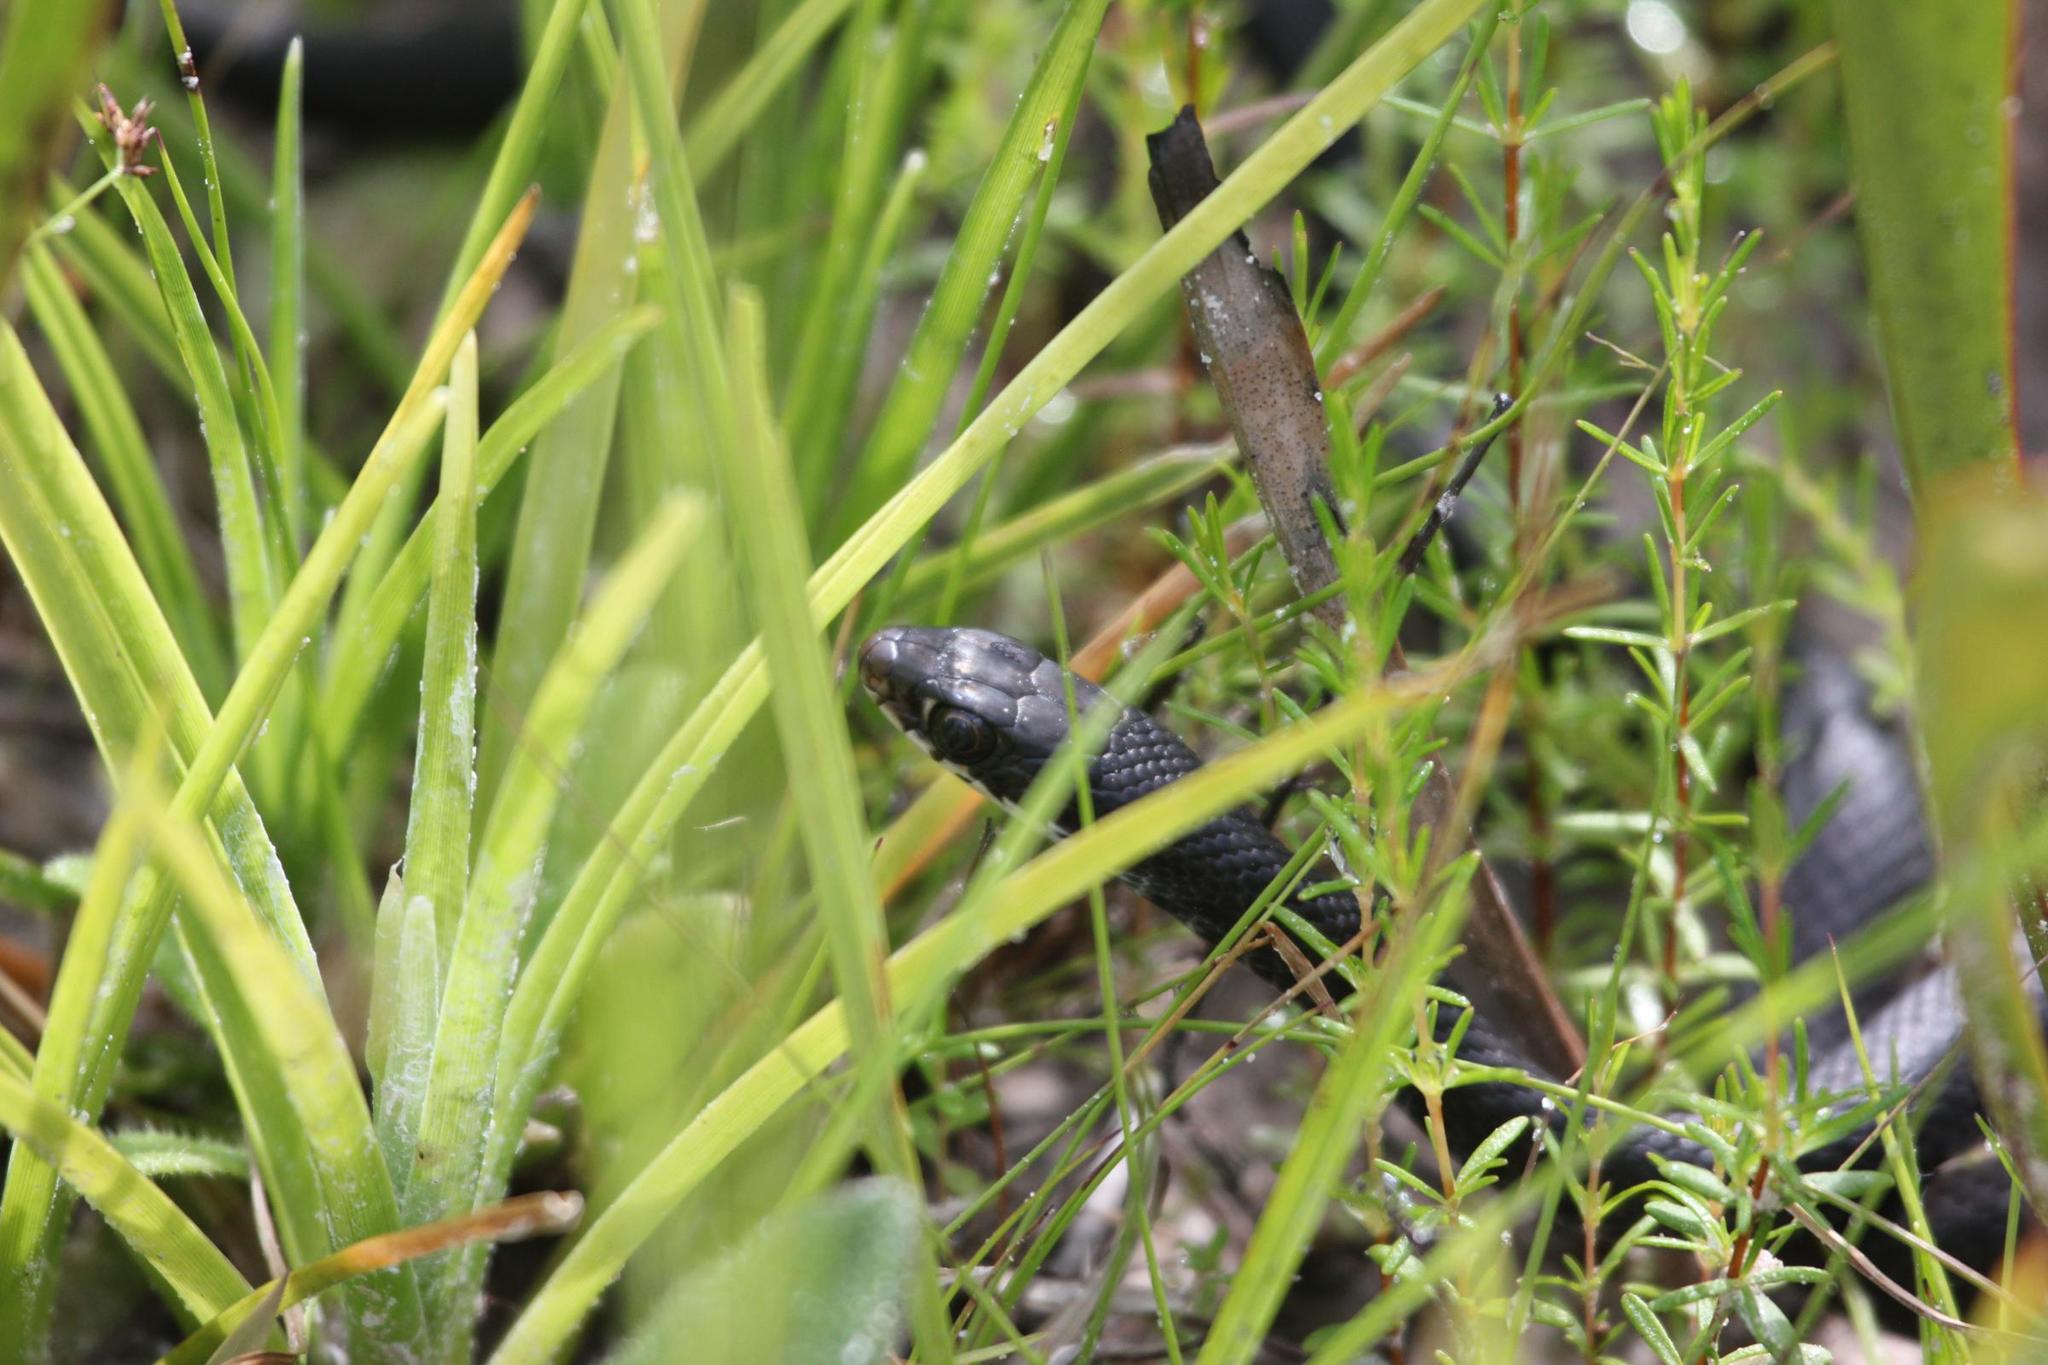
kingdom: Animalia
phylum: Chordata
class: Squamata
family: Colubridae
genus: Coluber
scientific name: Coluber constrictor
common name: Eastern racer
